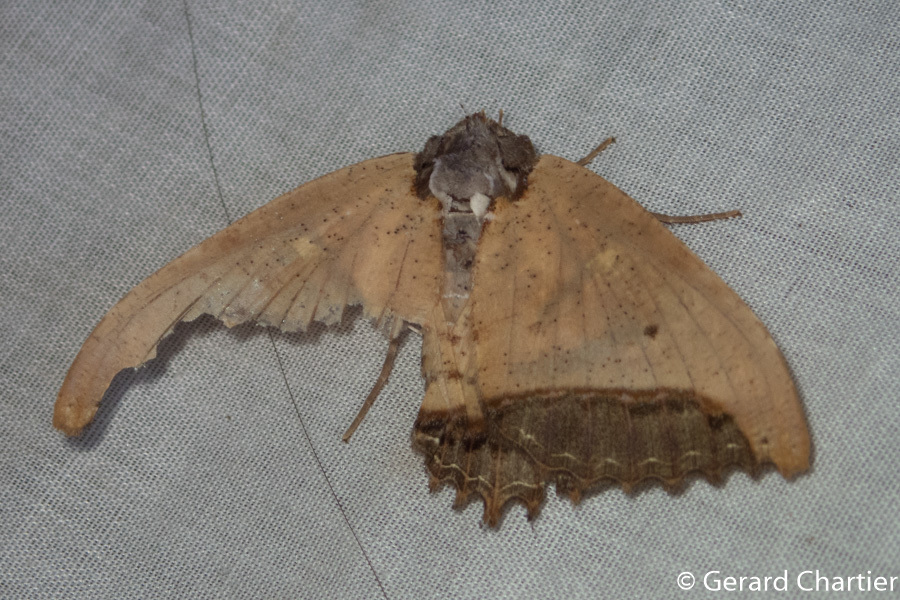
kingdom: Animalia
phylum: Arthropoda
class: Insecta
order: Lepidoptera
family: Erebidae
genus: Pterocyclophora
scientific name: Pterocyclophora ridleyi
